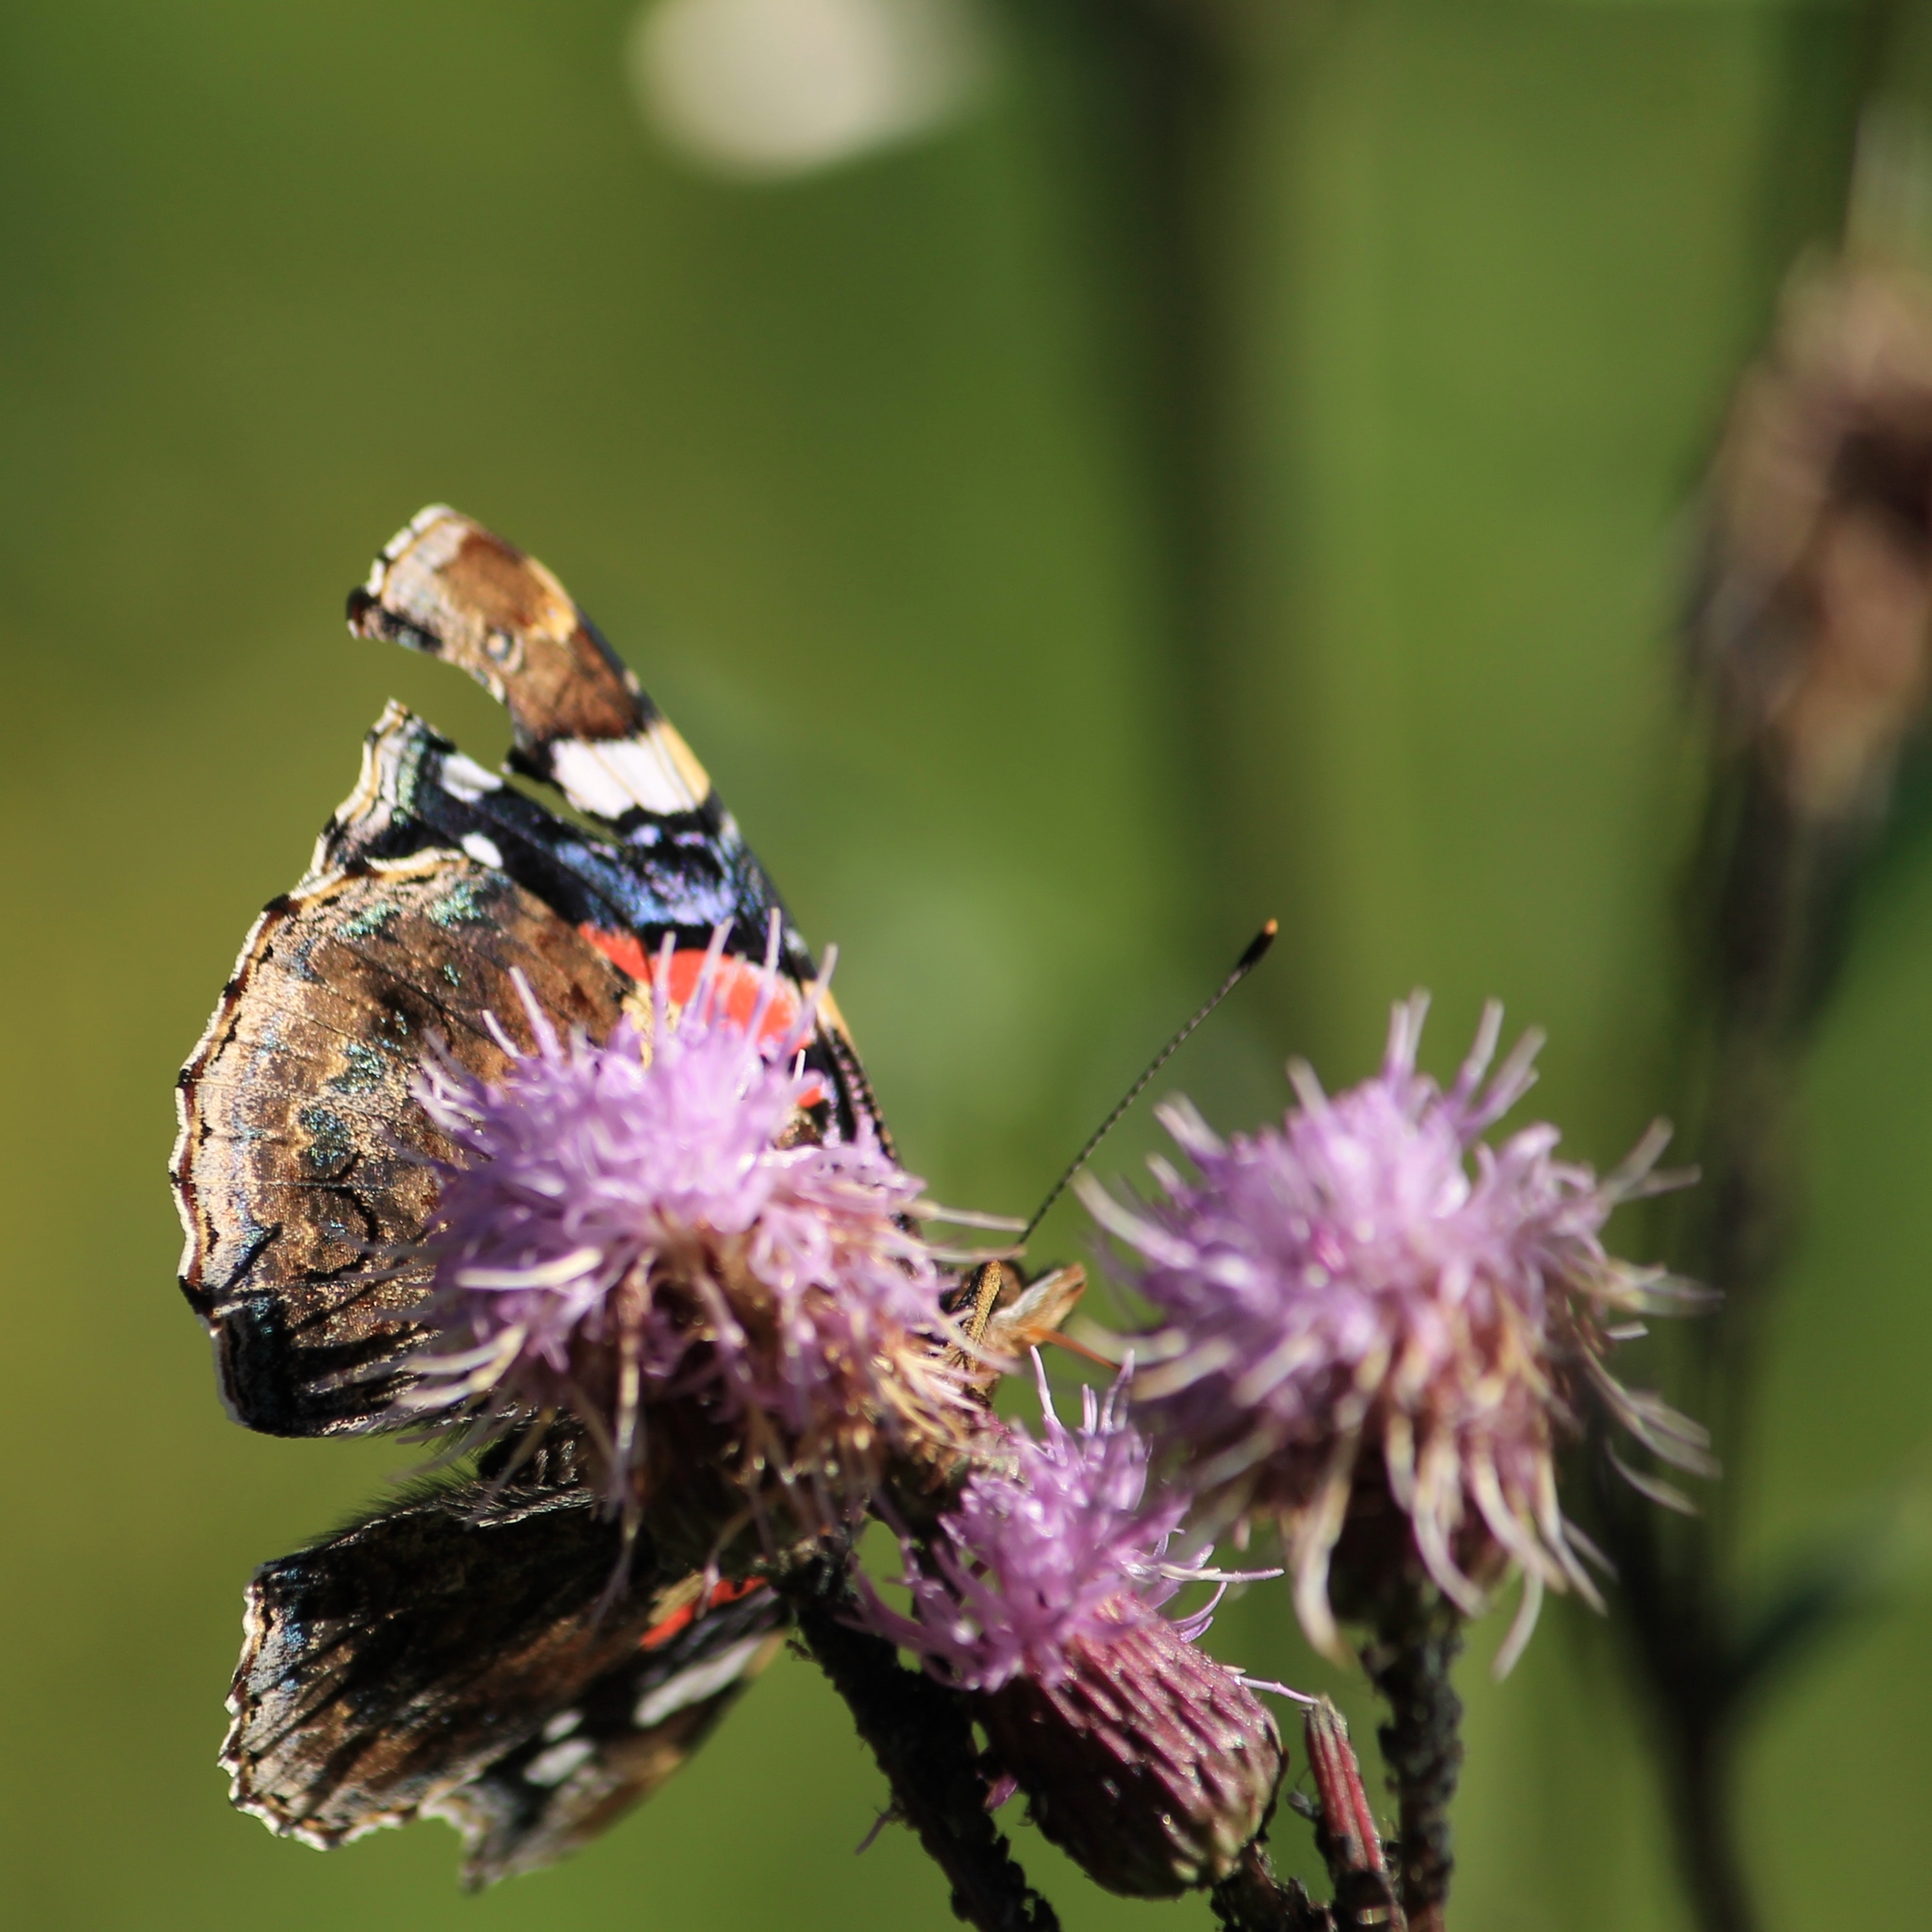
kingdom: Animalia
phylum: Arthropoda
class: Insecta
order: Lepidoptera
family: Nymphalidae
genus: Vanessa
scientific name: Vanessa atalanta
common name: Red admiral
